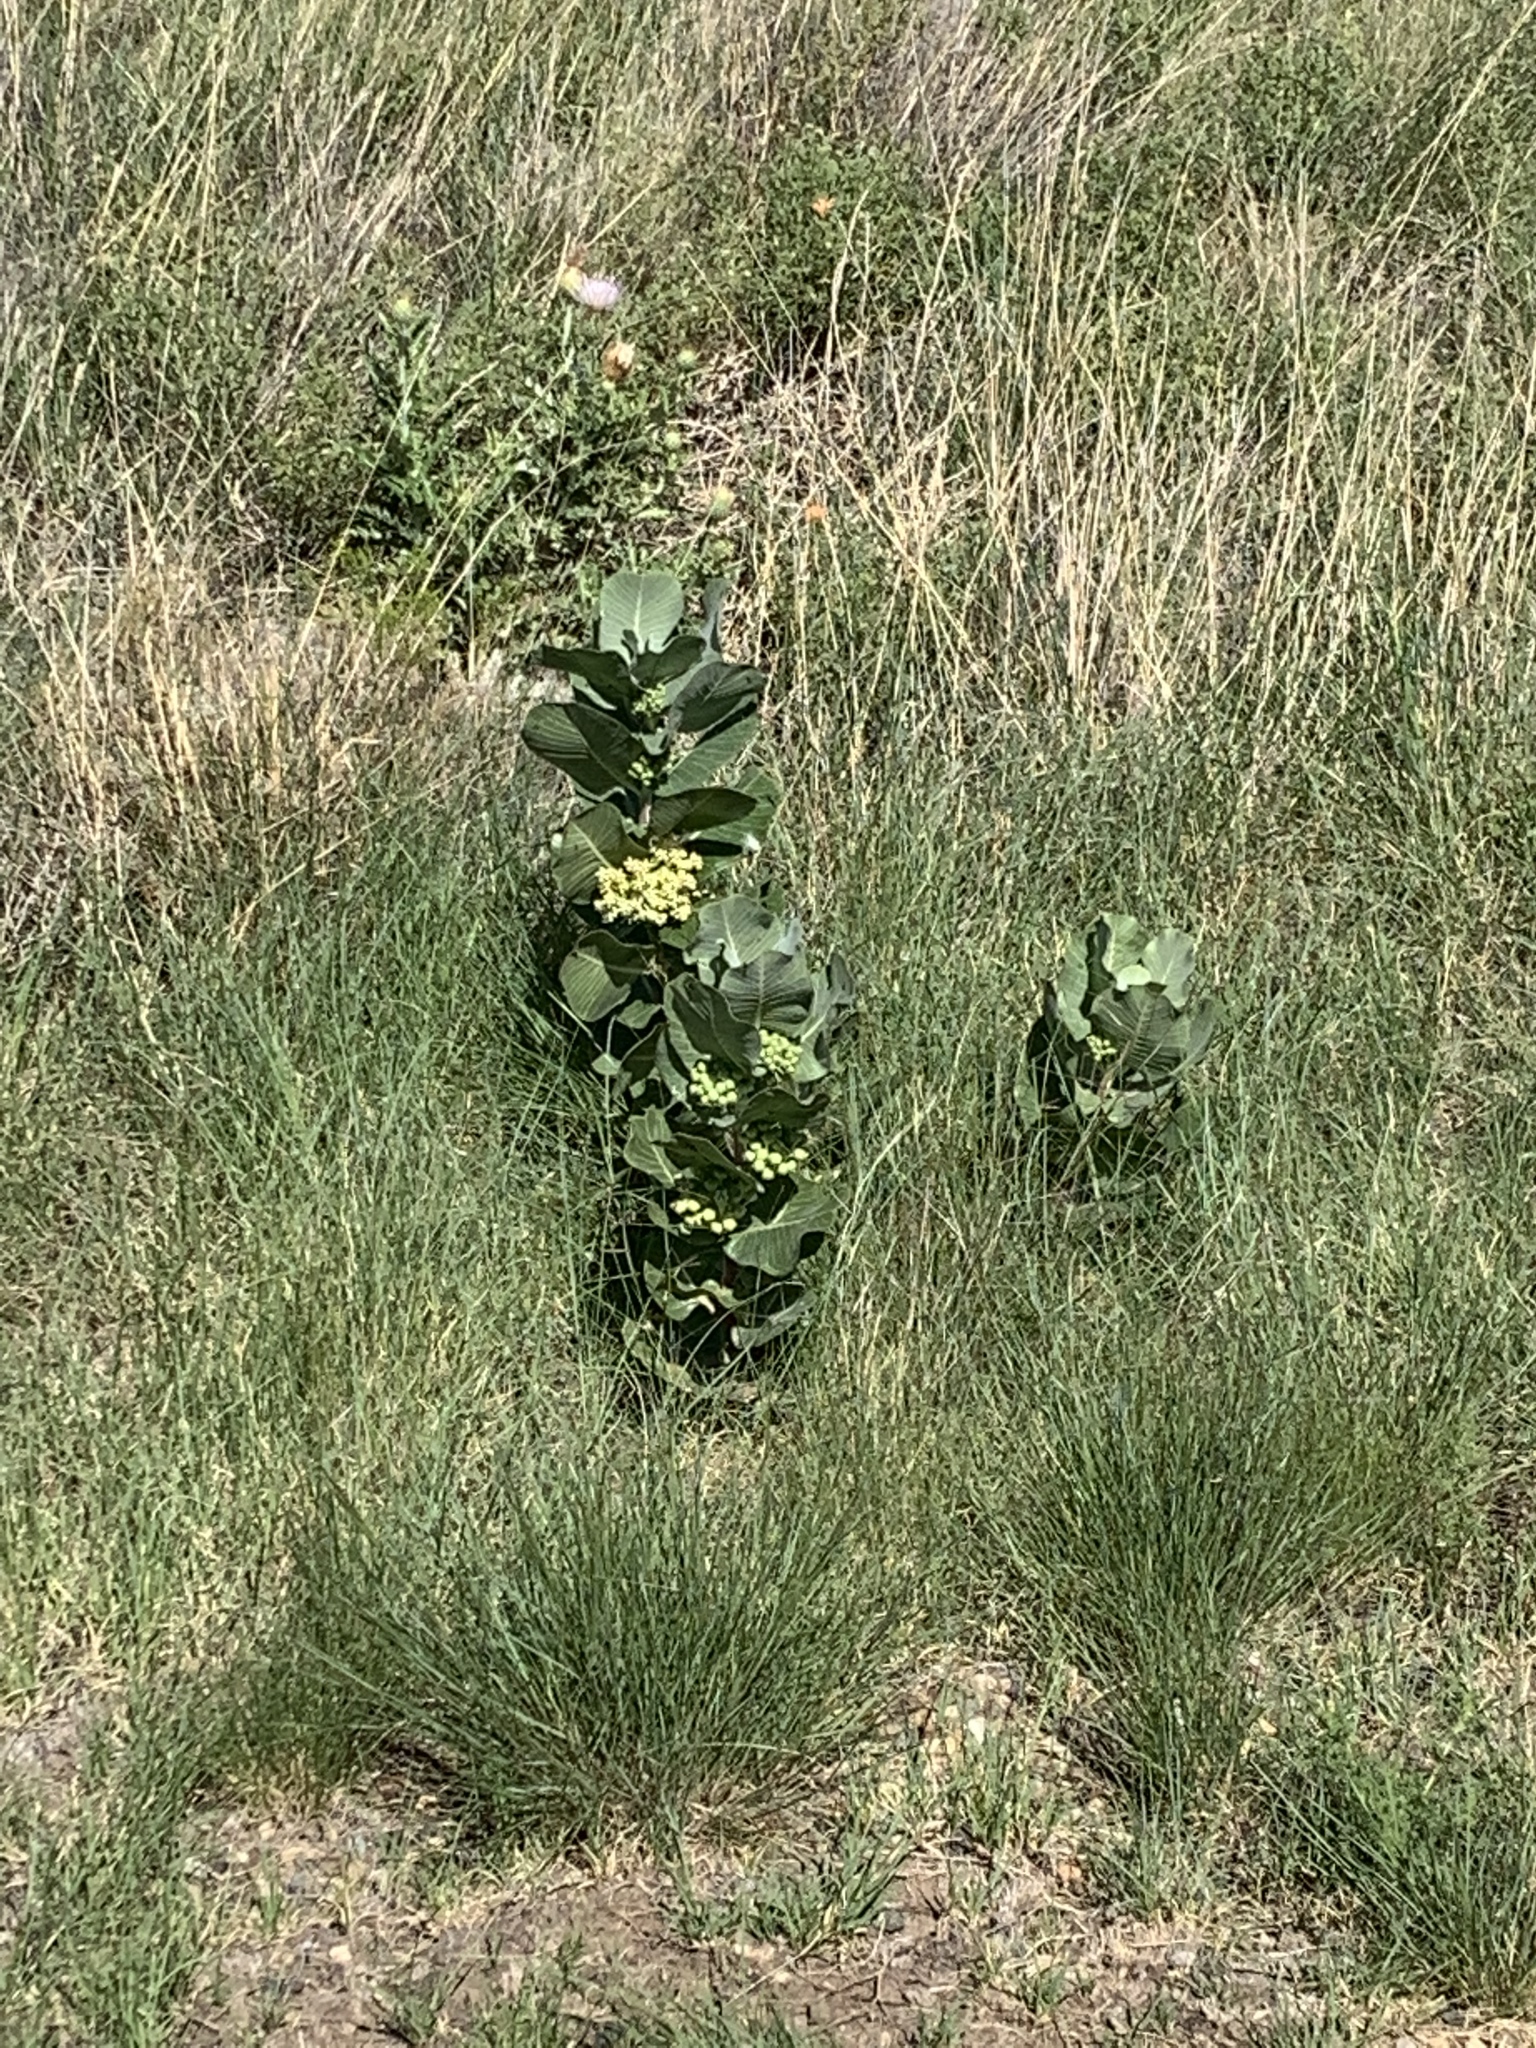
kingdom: Plantae
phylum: Tracheophyta
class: Magnoliopsida
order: Gentianales
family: Apocynaceae
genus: Asclepias
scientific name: Asclepias latifolia
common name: Broadleaf milkweed
